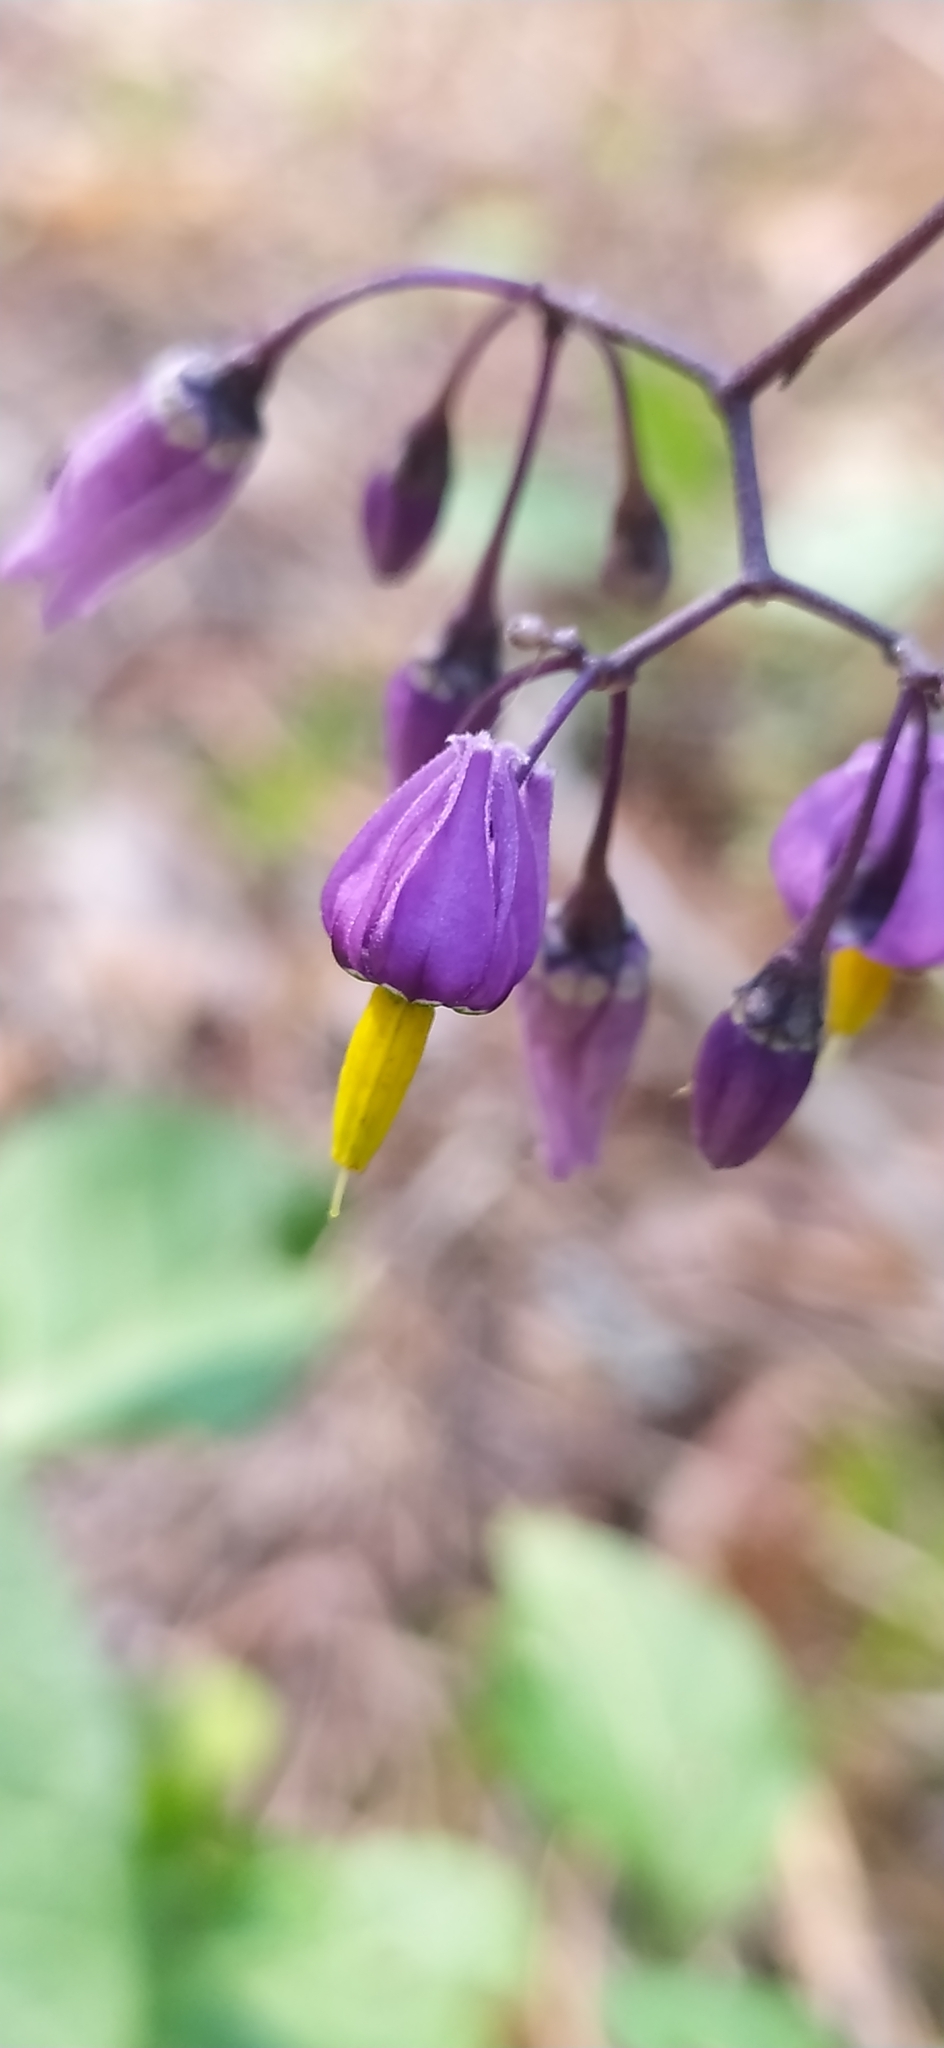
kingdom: Plantae
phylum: Tracheophyta
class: Magnoliopsida
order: Solanales
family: Solanaceae
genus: Solanum
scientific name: Solanum dulcamara
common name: Climbing nightshade
